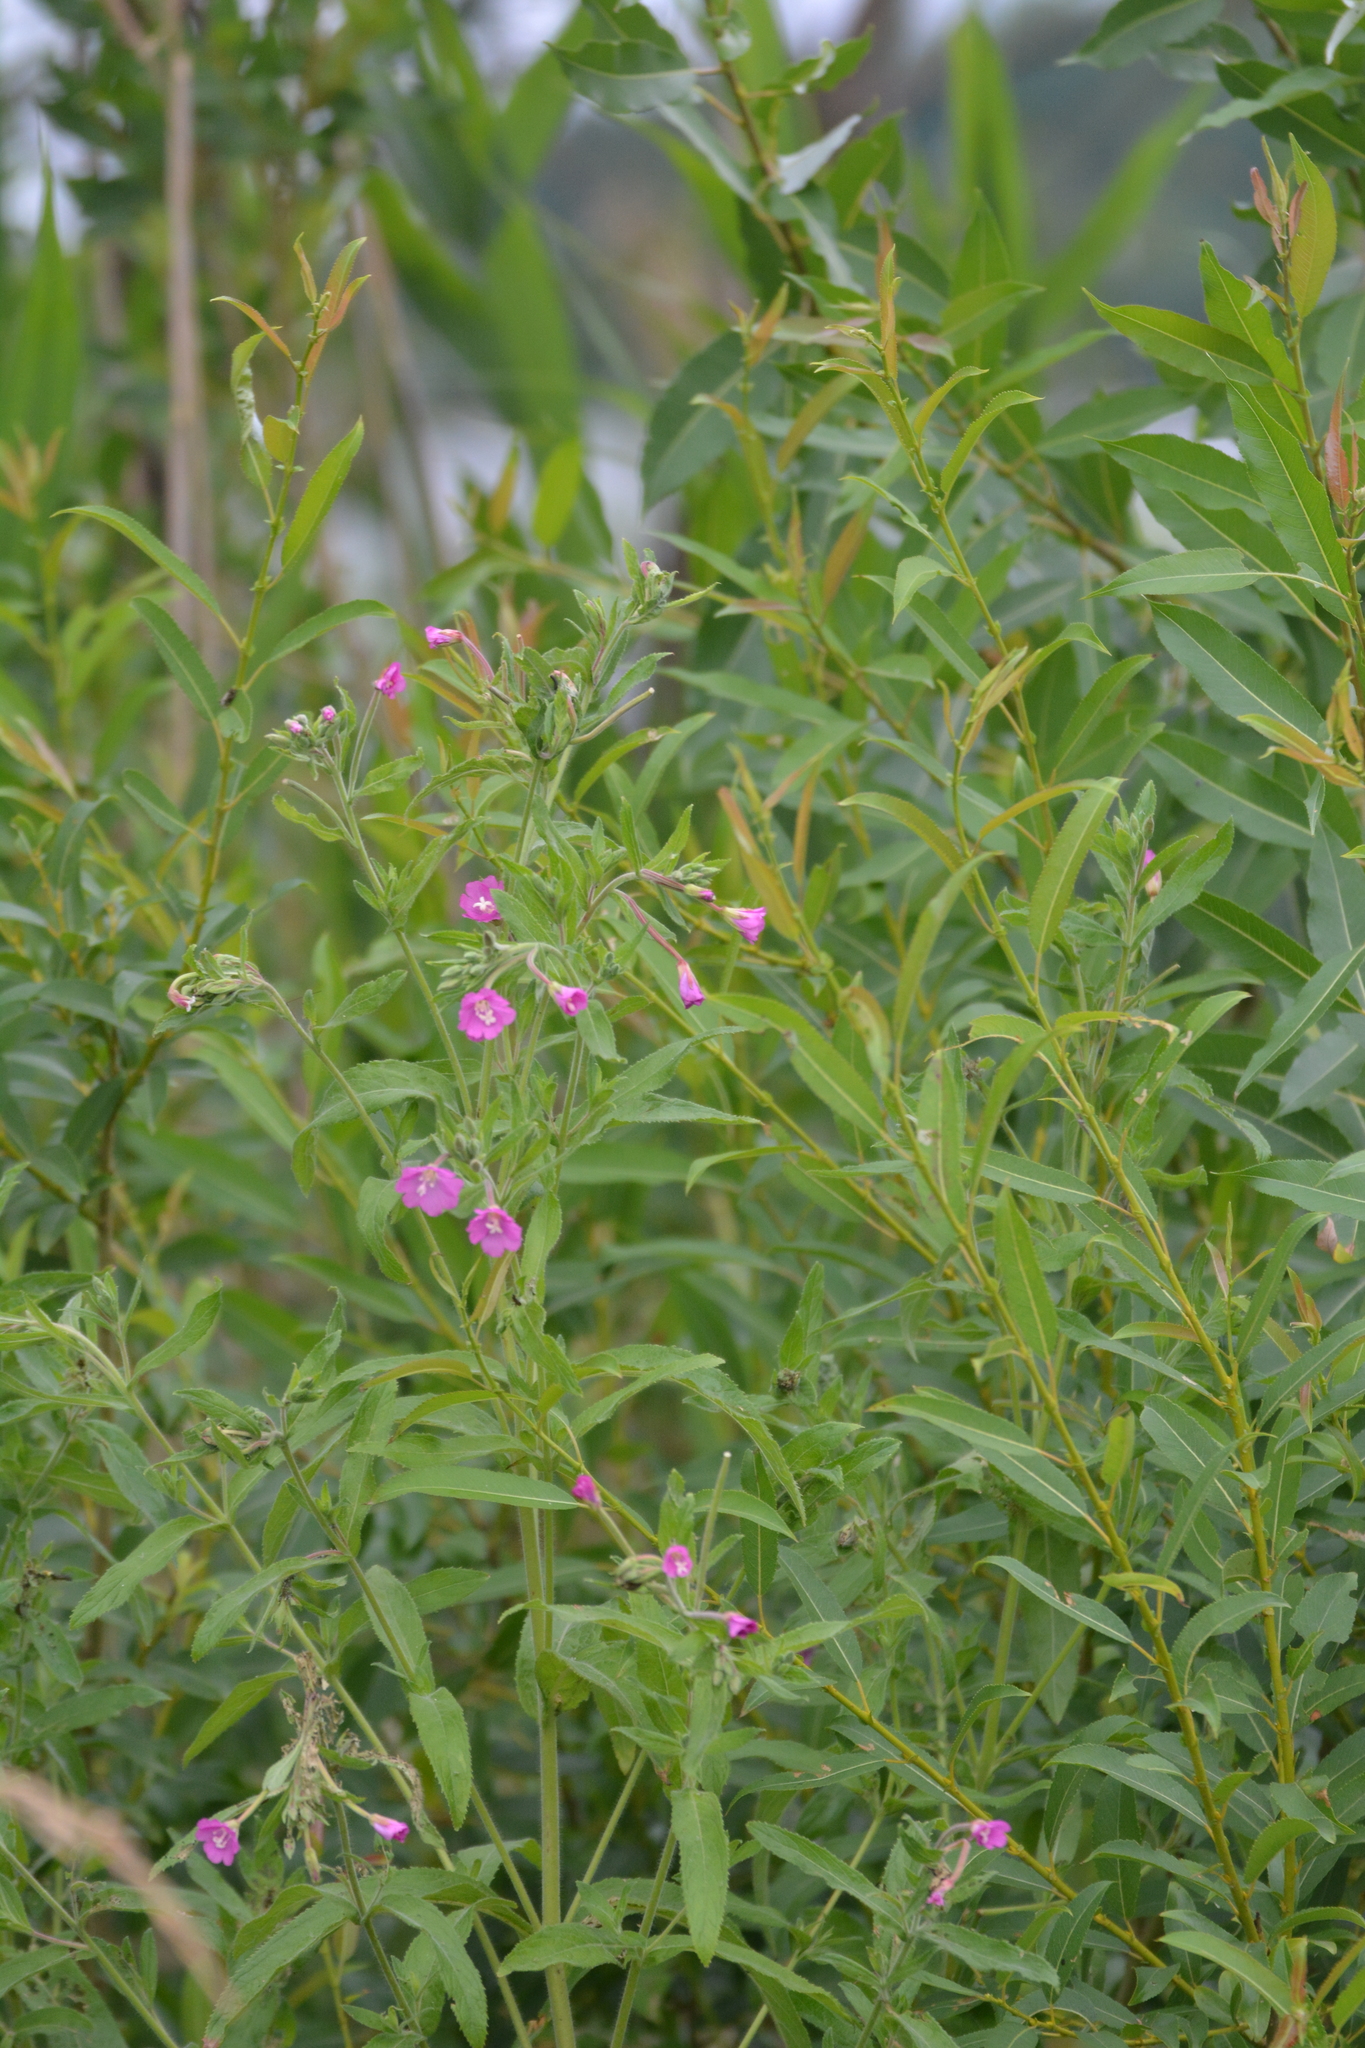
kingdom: Plantae
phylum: Tracheophyta
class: Magnoliopsida
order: Myrtales
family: Onagraceae
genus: Epilobium
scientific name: Epilobium hirsutum
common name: Great willowherb
